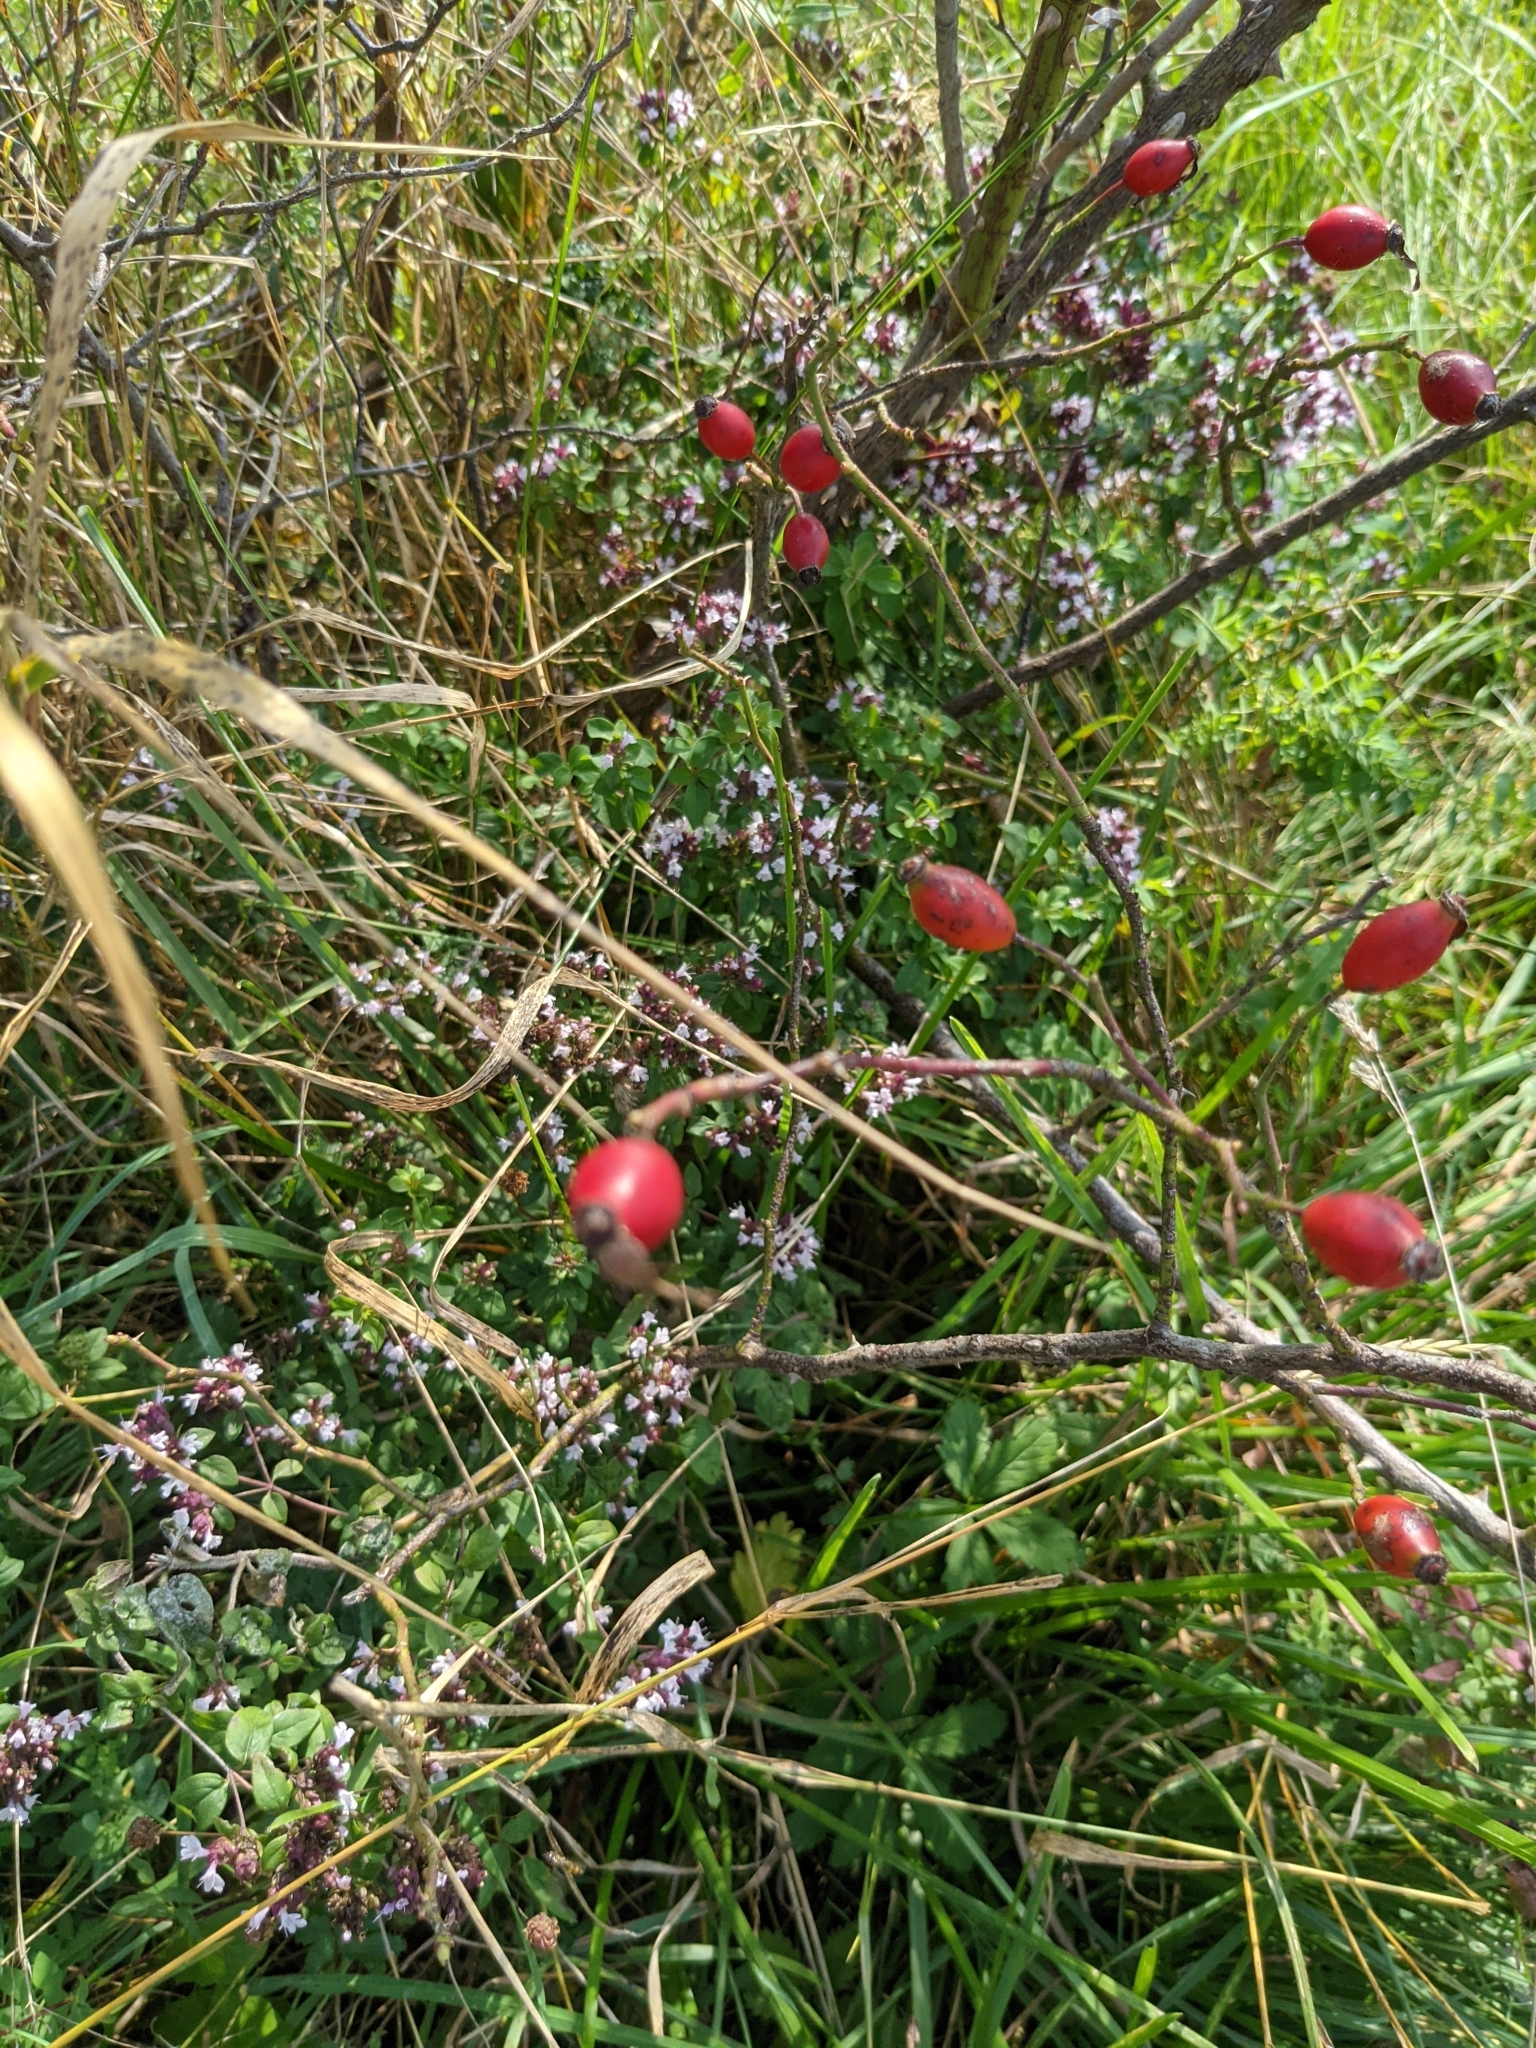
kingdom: Plantae
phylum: Tracheophyta
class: Magnoliopsida
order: Lamiales
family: Lamiaceae
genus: Origanum
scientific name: Origanum vulgare
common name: Wild marjoram
